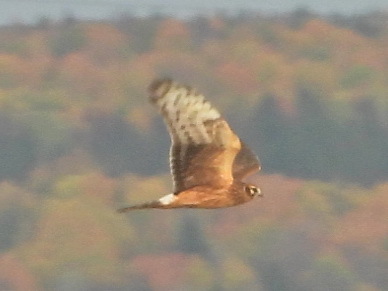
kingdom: Animalia
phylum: Chordata
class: Aves
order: Accipitriformes
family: Accipitridae
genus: Circus
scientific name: Circus cyaneus
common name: Hen harrier
